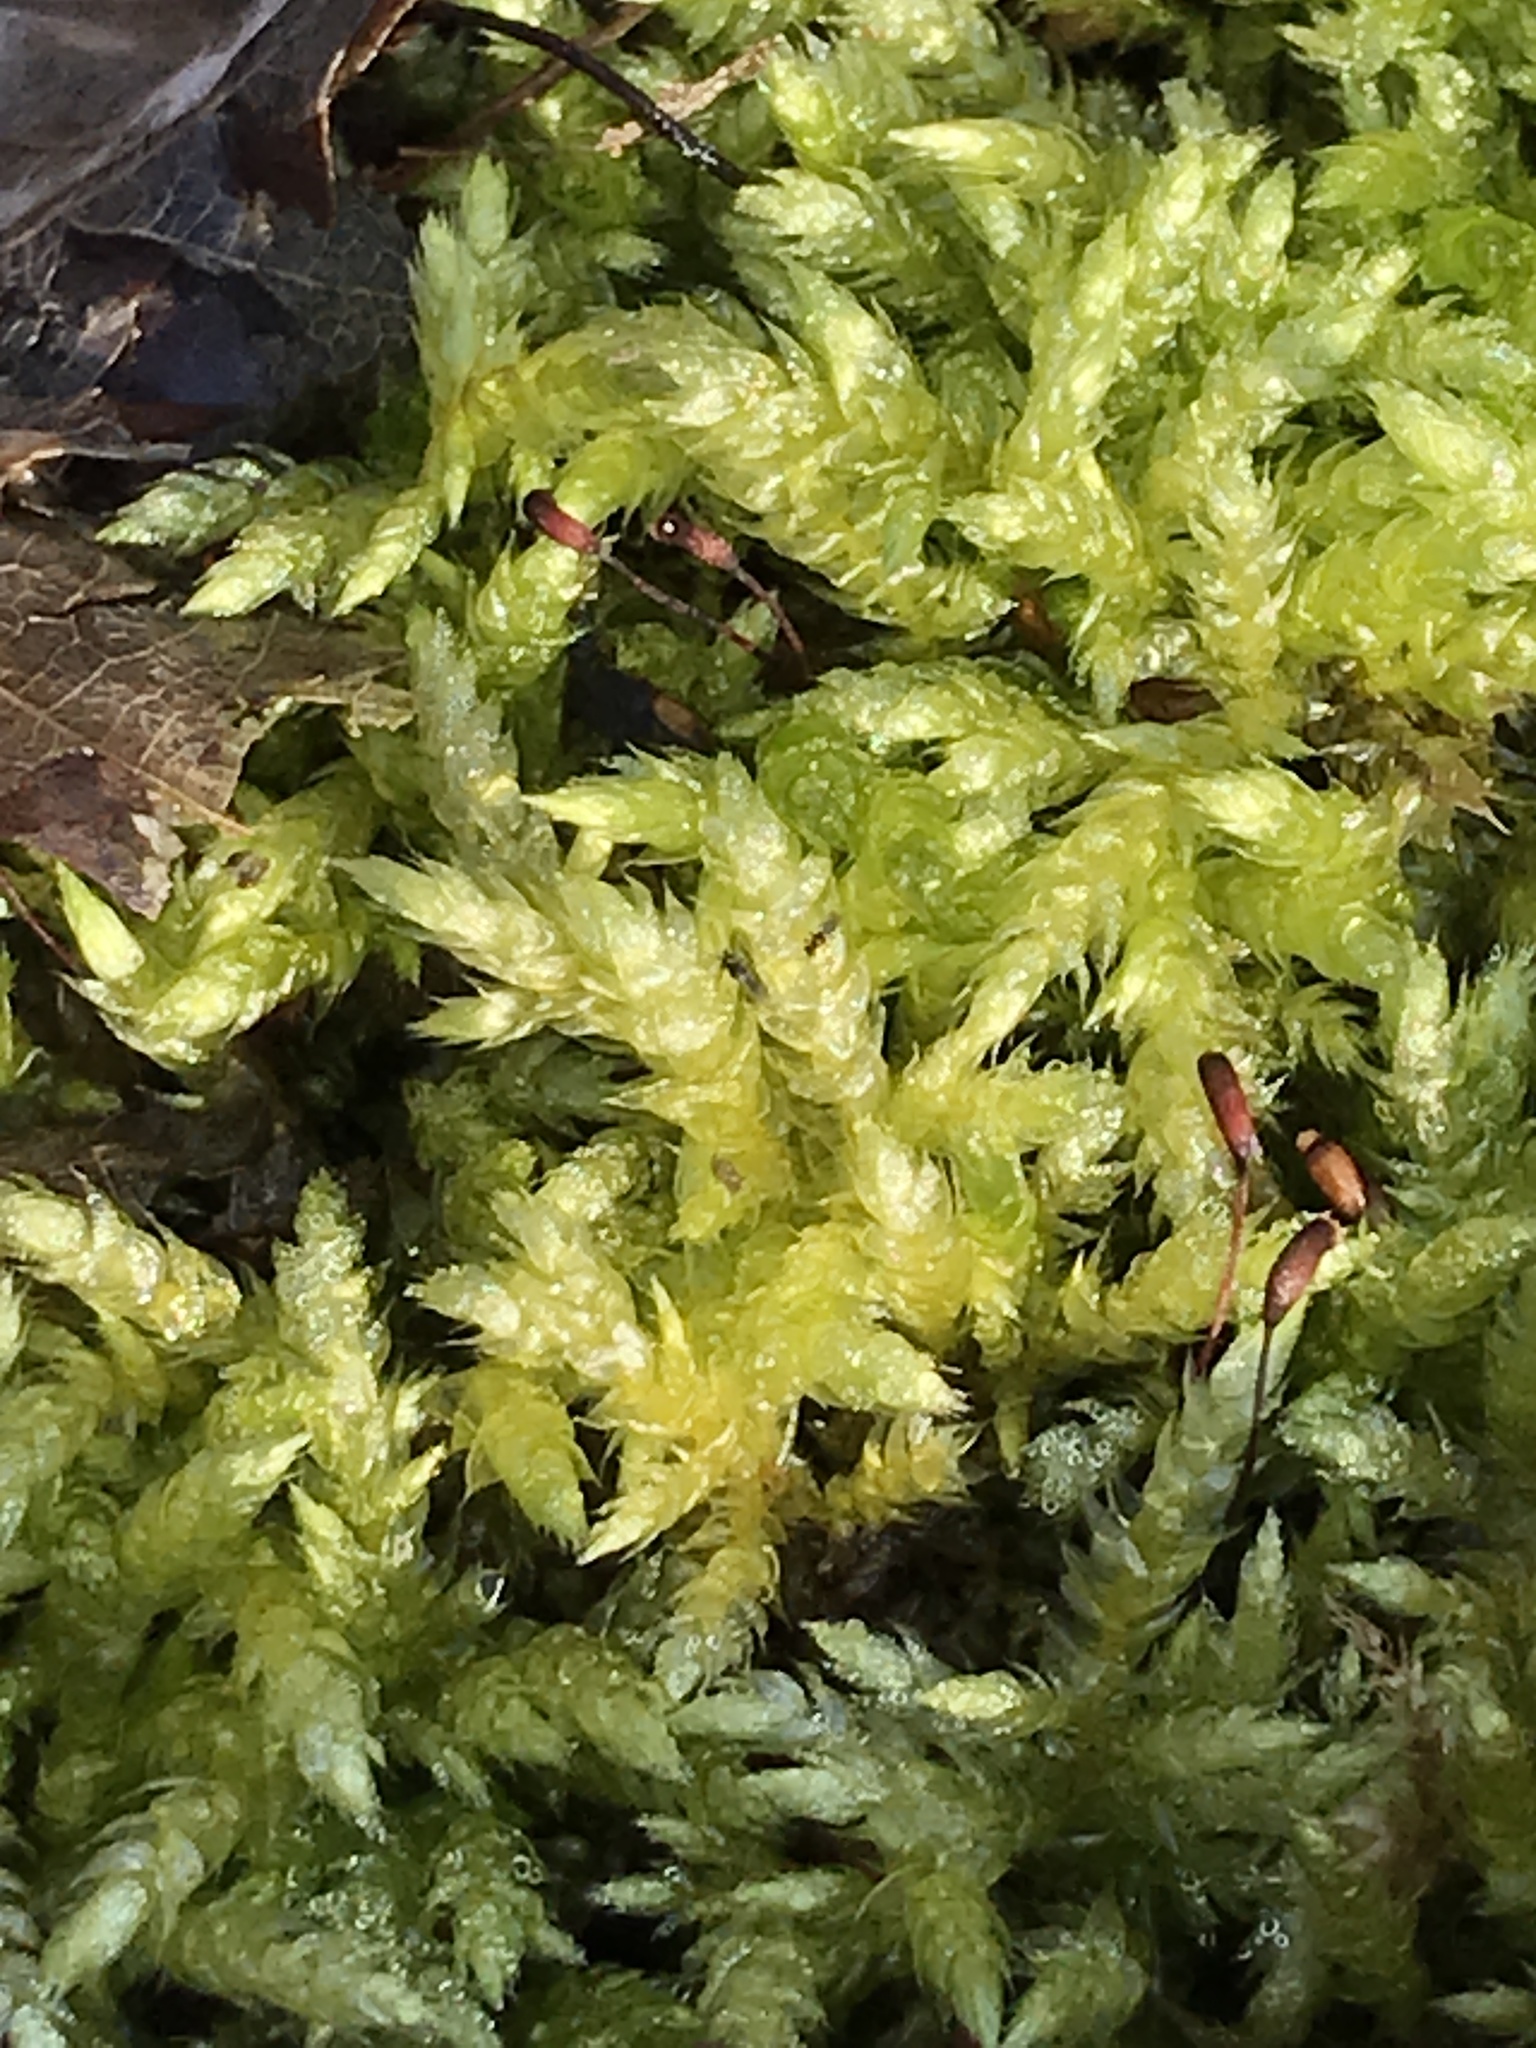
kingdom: Plantae
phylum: Bryophyta
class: Bryopsida
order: Hypnales
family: Brachytheciaceae
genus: Brachythecium
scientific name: Brachythecium rutabulum
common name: Rough-stalked feather-moss
